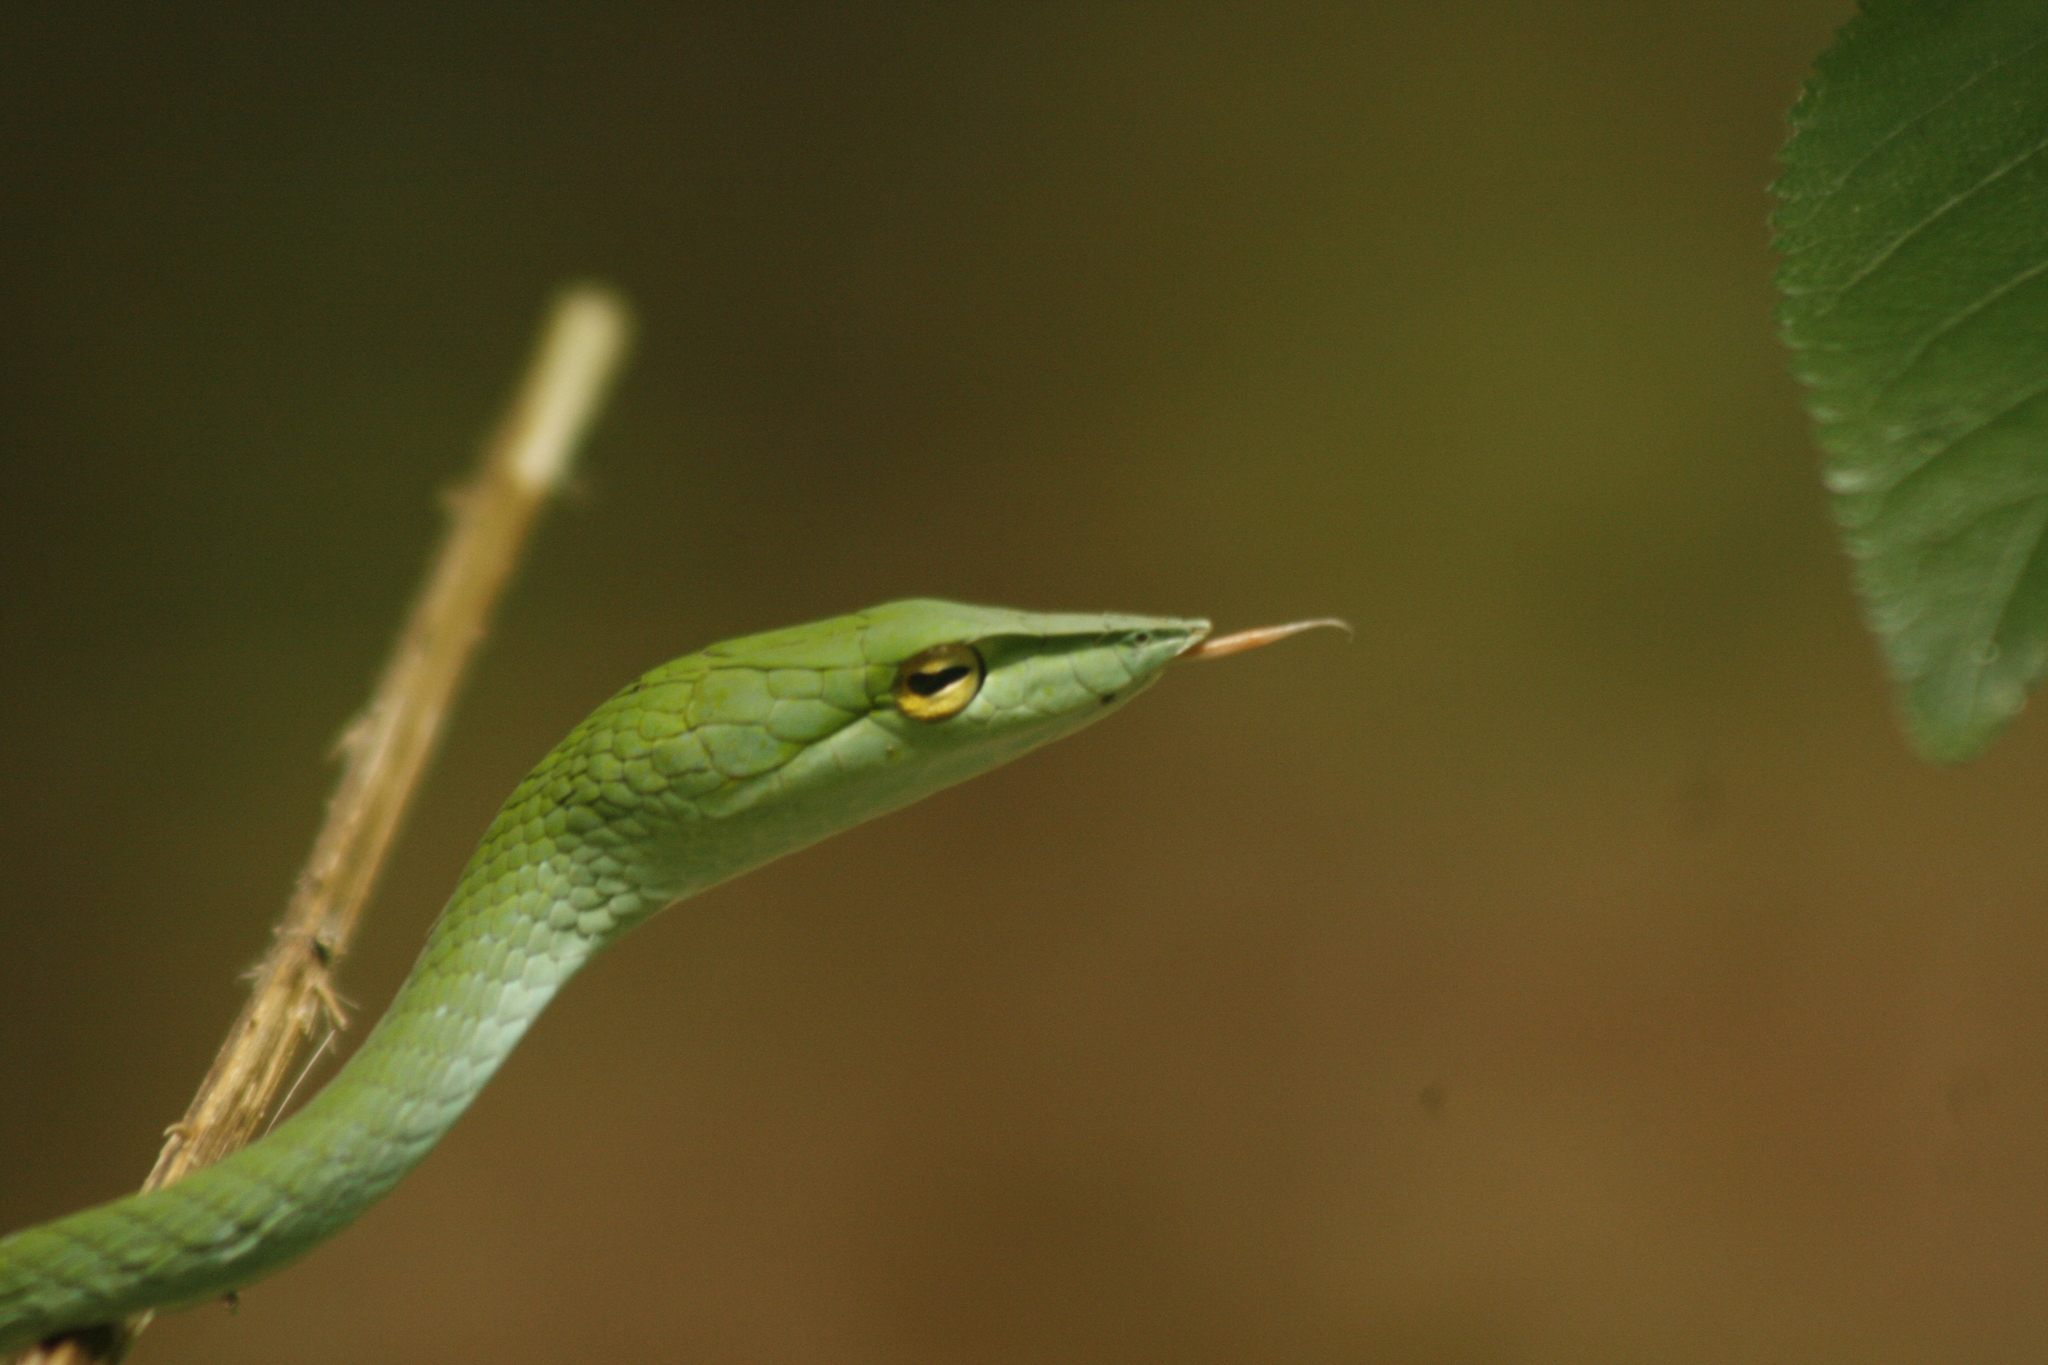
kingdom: Animalia
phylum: Chordata
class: Squamata
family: Colubridae
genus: Ahaetulla
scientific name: Ahaetulla isabellina
